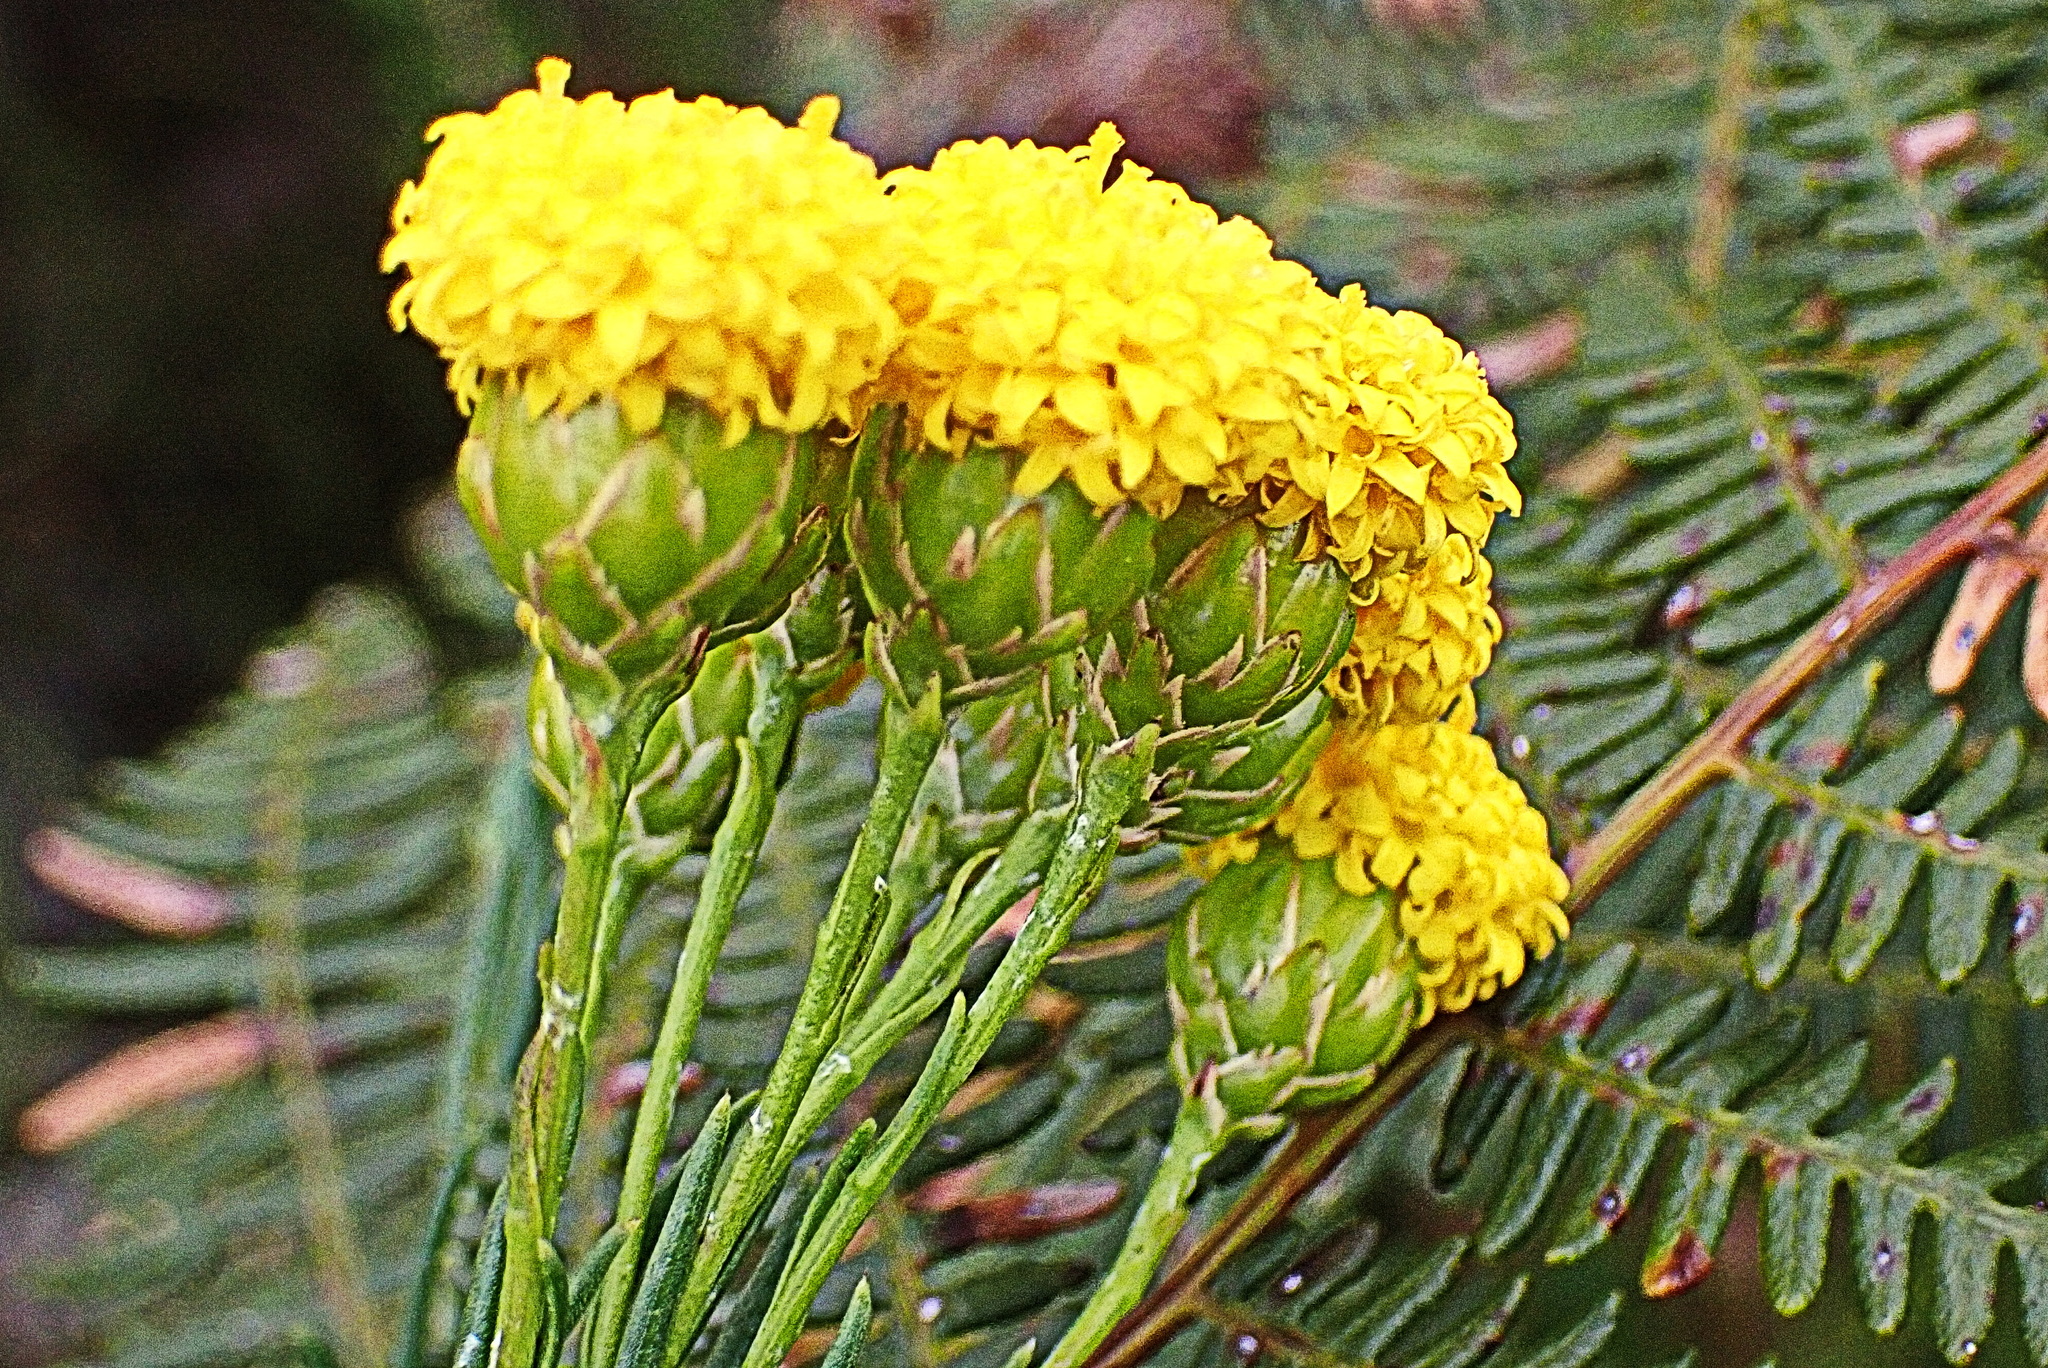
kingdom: Plantae
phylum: Tracheophyta
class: Magnoliopsida
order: Asterales
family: Asteraceae
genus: Athanasia
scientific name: Athanasia linifolia
